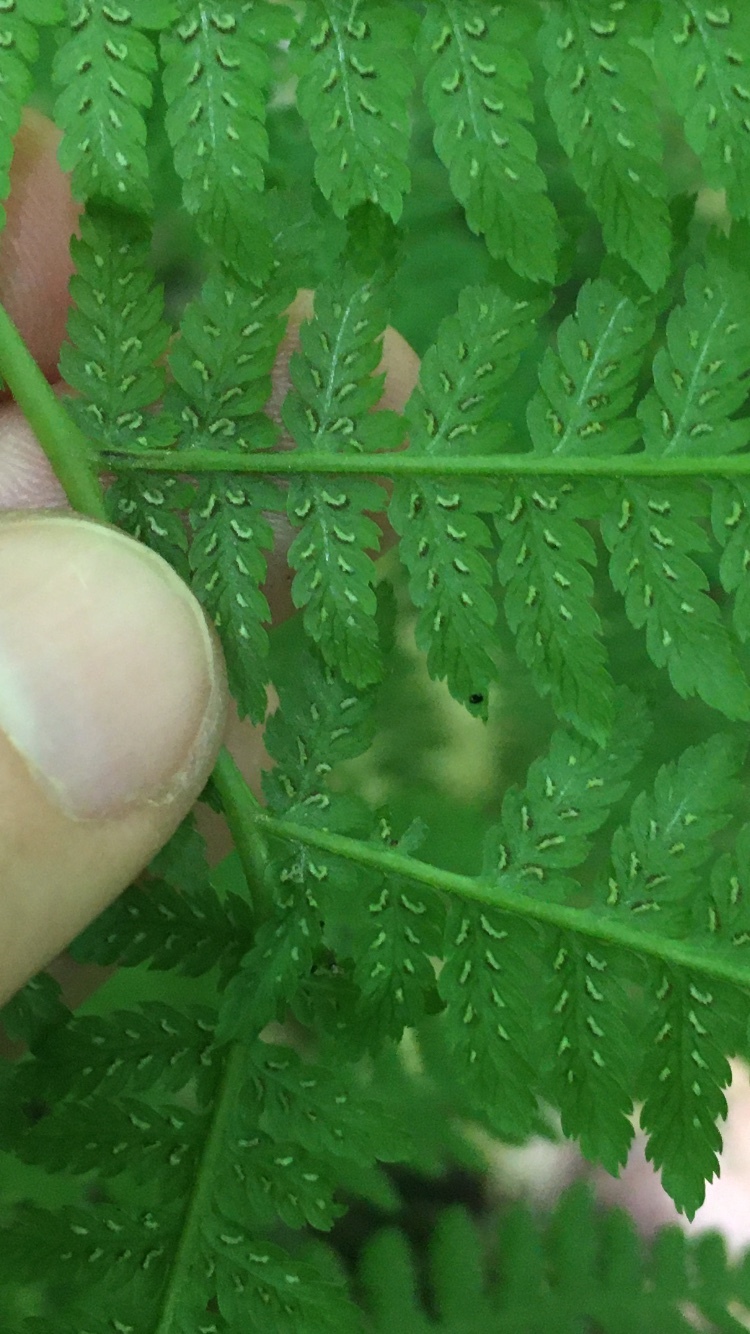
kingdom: Plantae
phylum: Tracheophyta
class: Polypodiopsida
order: Polypodiales
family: Athyriaceae
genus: Athyrium
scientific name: Athyrium angustum
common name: Northern lady fern
